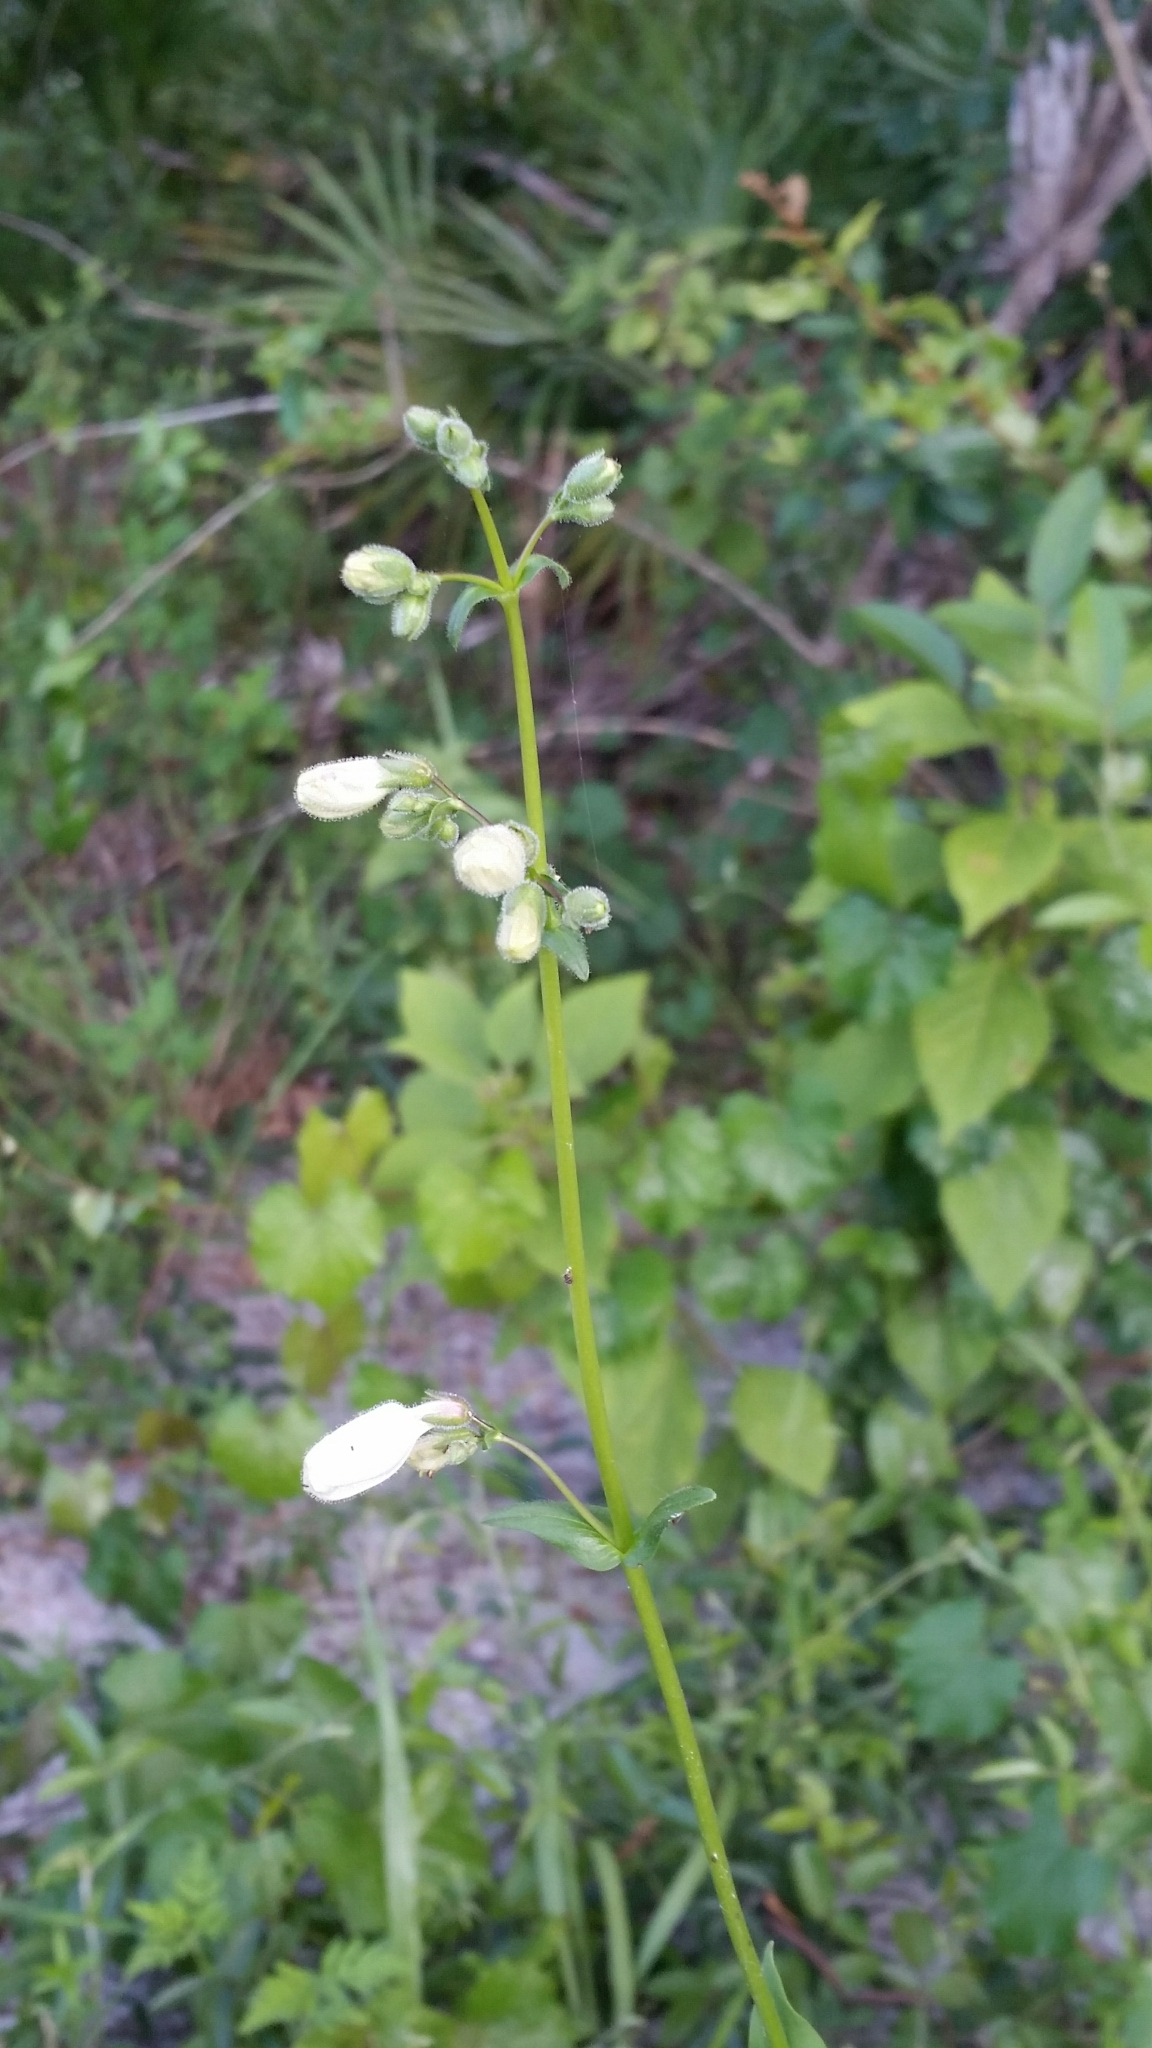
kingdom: Plantae
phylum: Tracheophyta
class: Magnoliopsida
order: Lamiales
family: Plantaginaceae
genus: Penstemon
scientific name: Penstemon multiflorus
